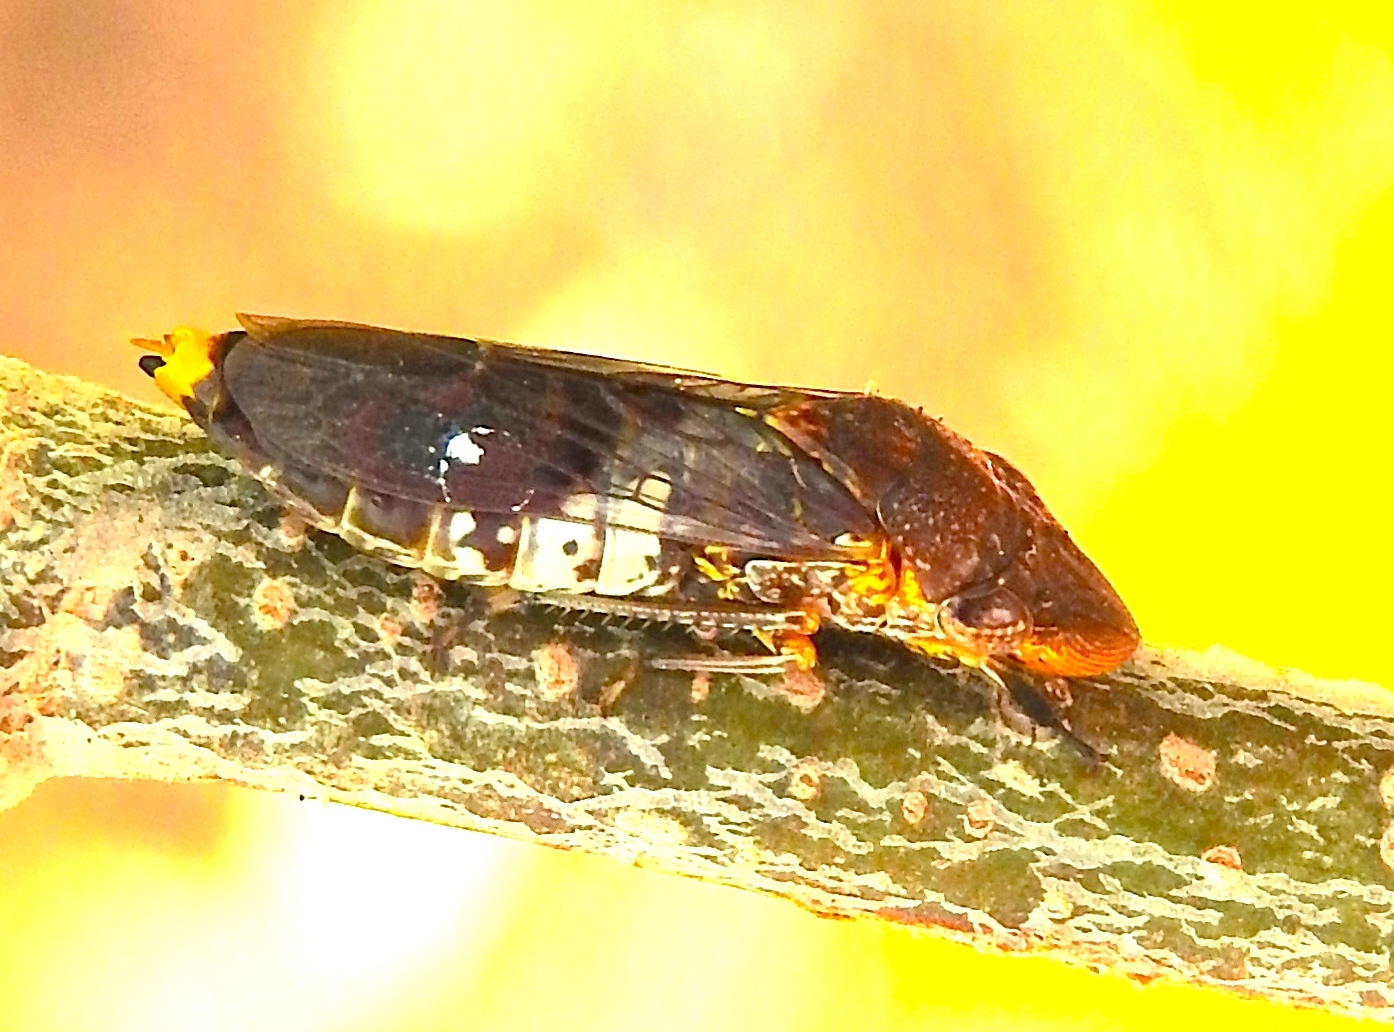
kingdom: Animalia
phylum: Arthropoda
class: Insecta
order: Hemiptera
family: Cicadellidae
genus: Homalodisca
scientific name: Homalodisca ichthyocephala
